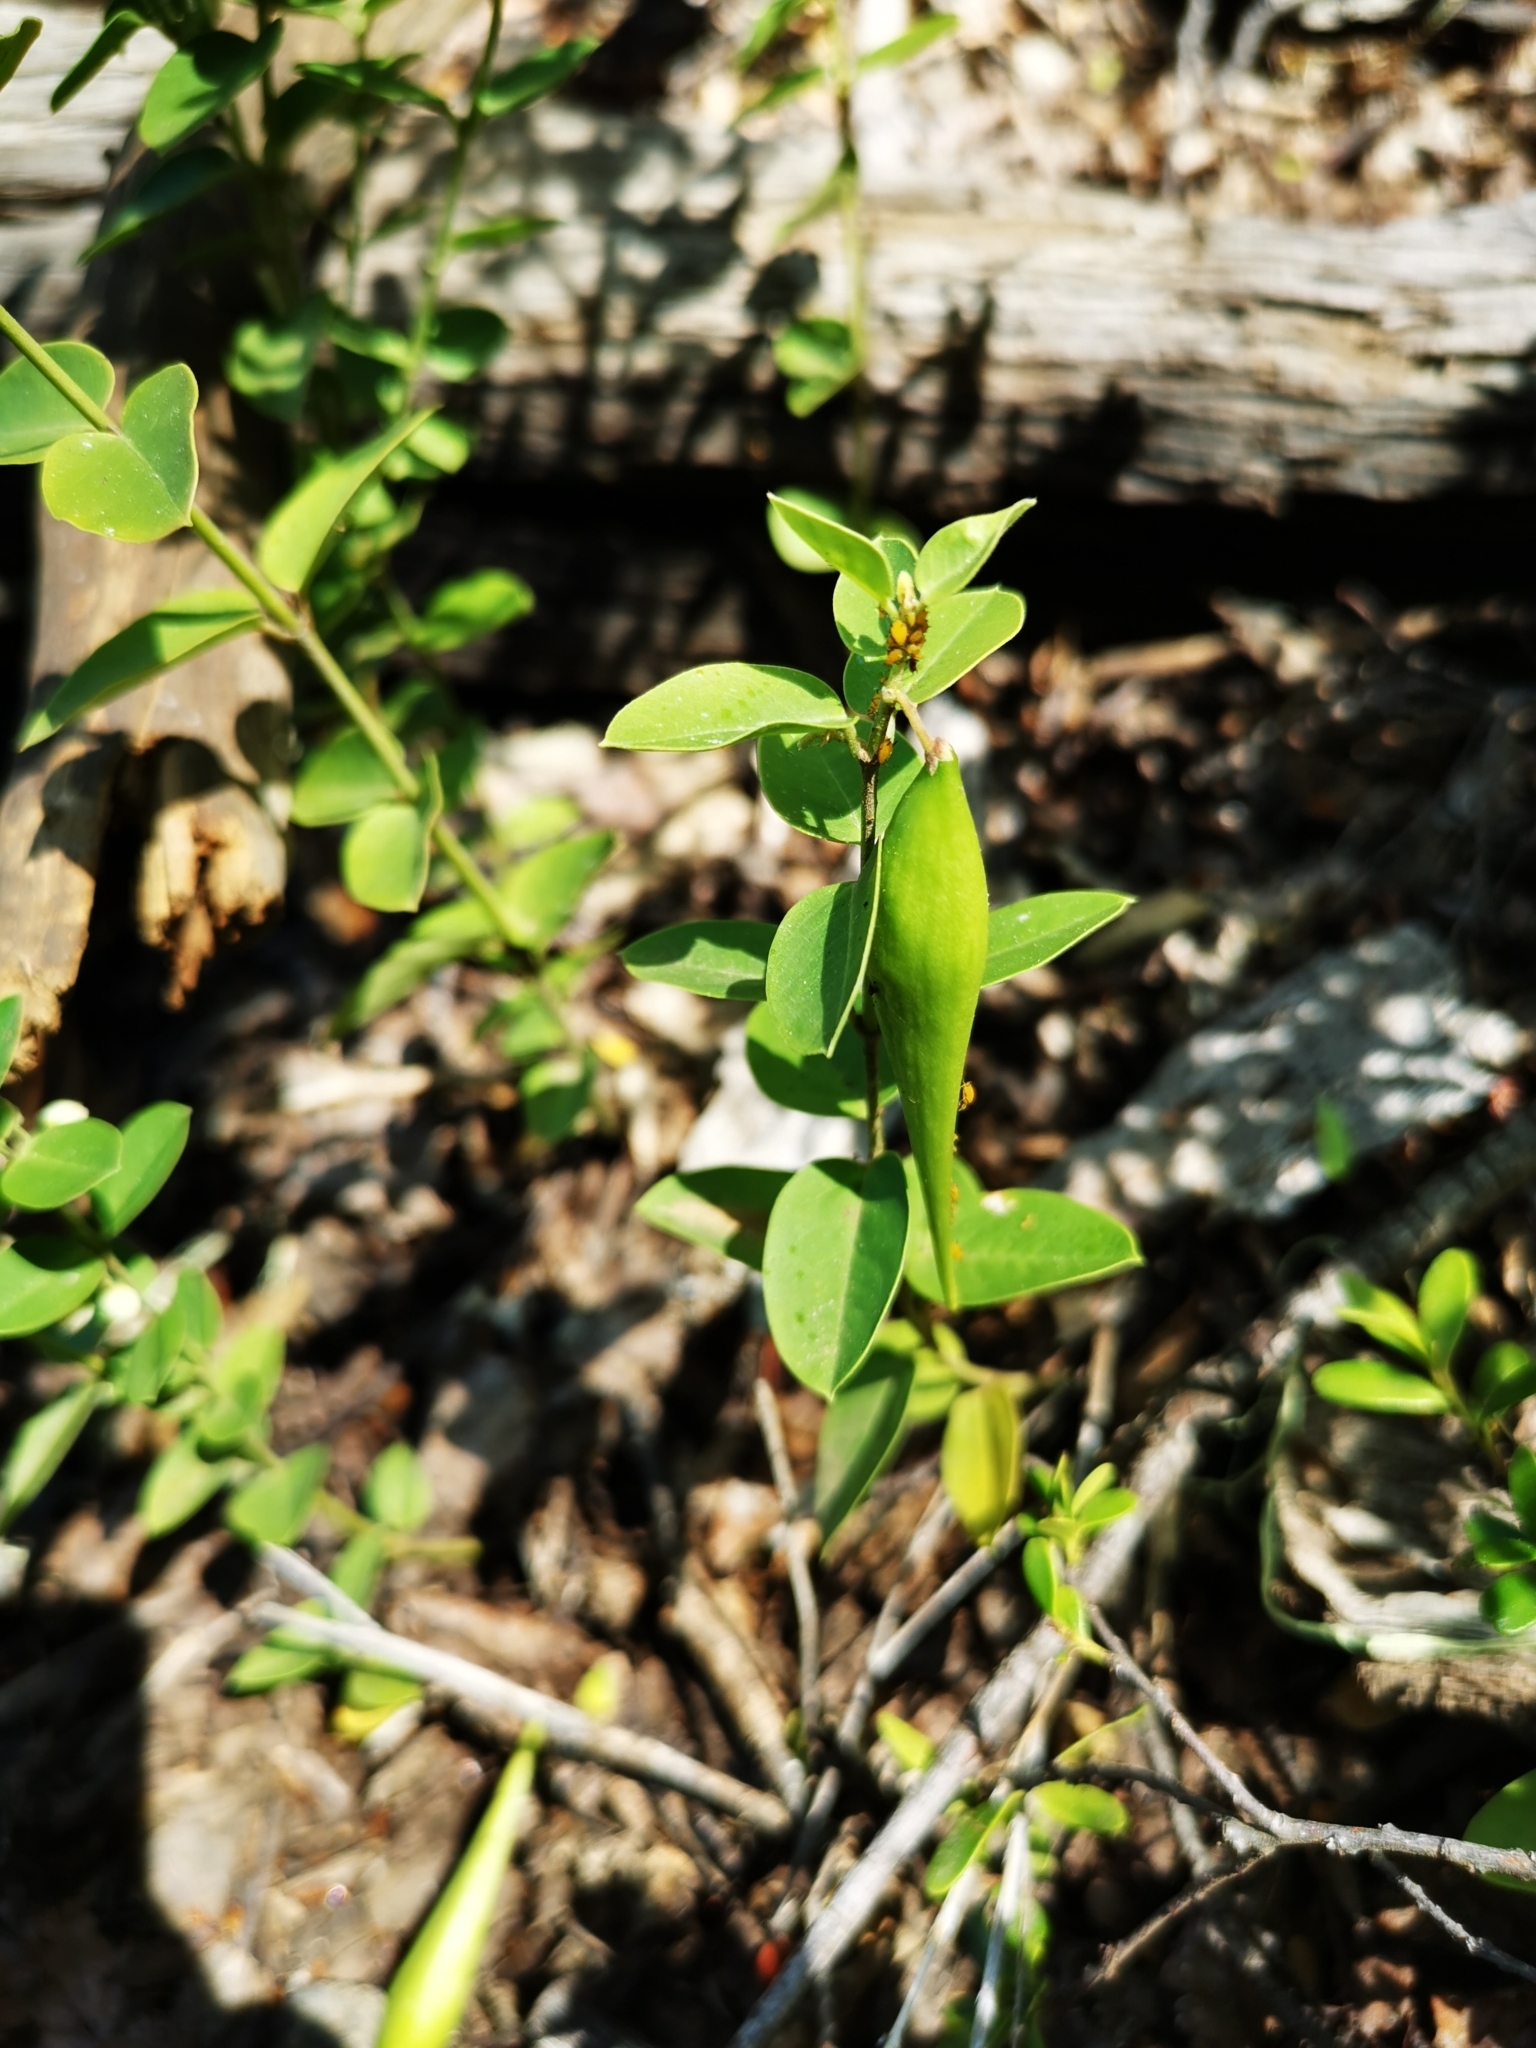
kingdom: Plantae
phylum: Tracheophyta
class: Magnoliopsida
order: Gentianales
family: Apocynaceae
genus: Diplolepis
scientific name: Diplolepis nummulariifolia
